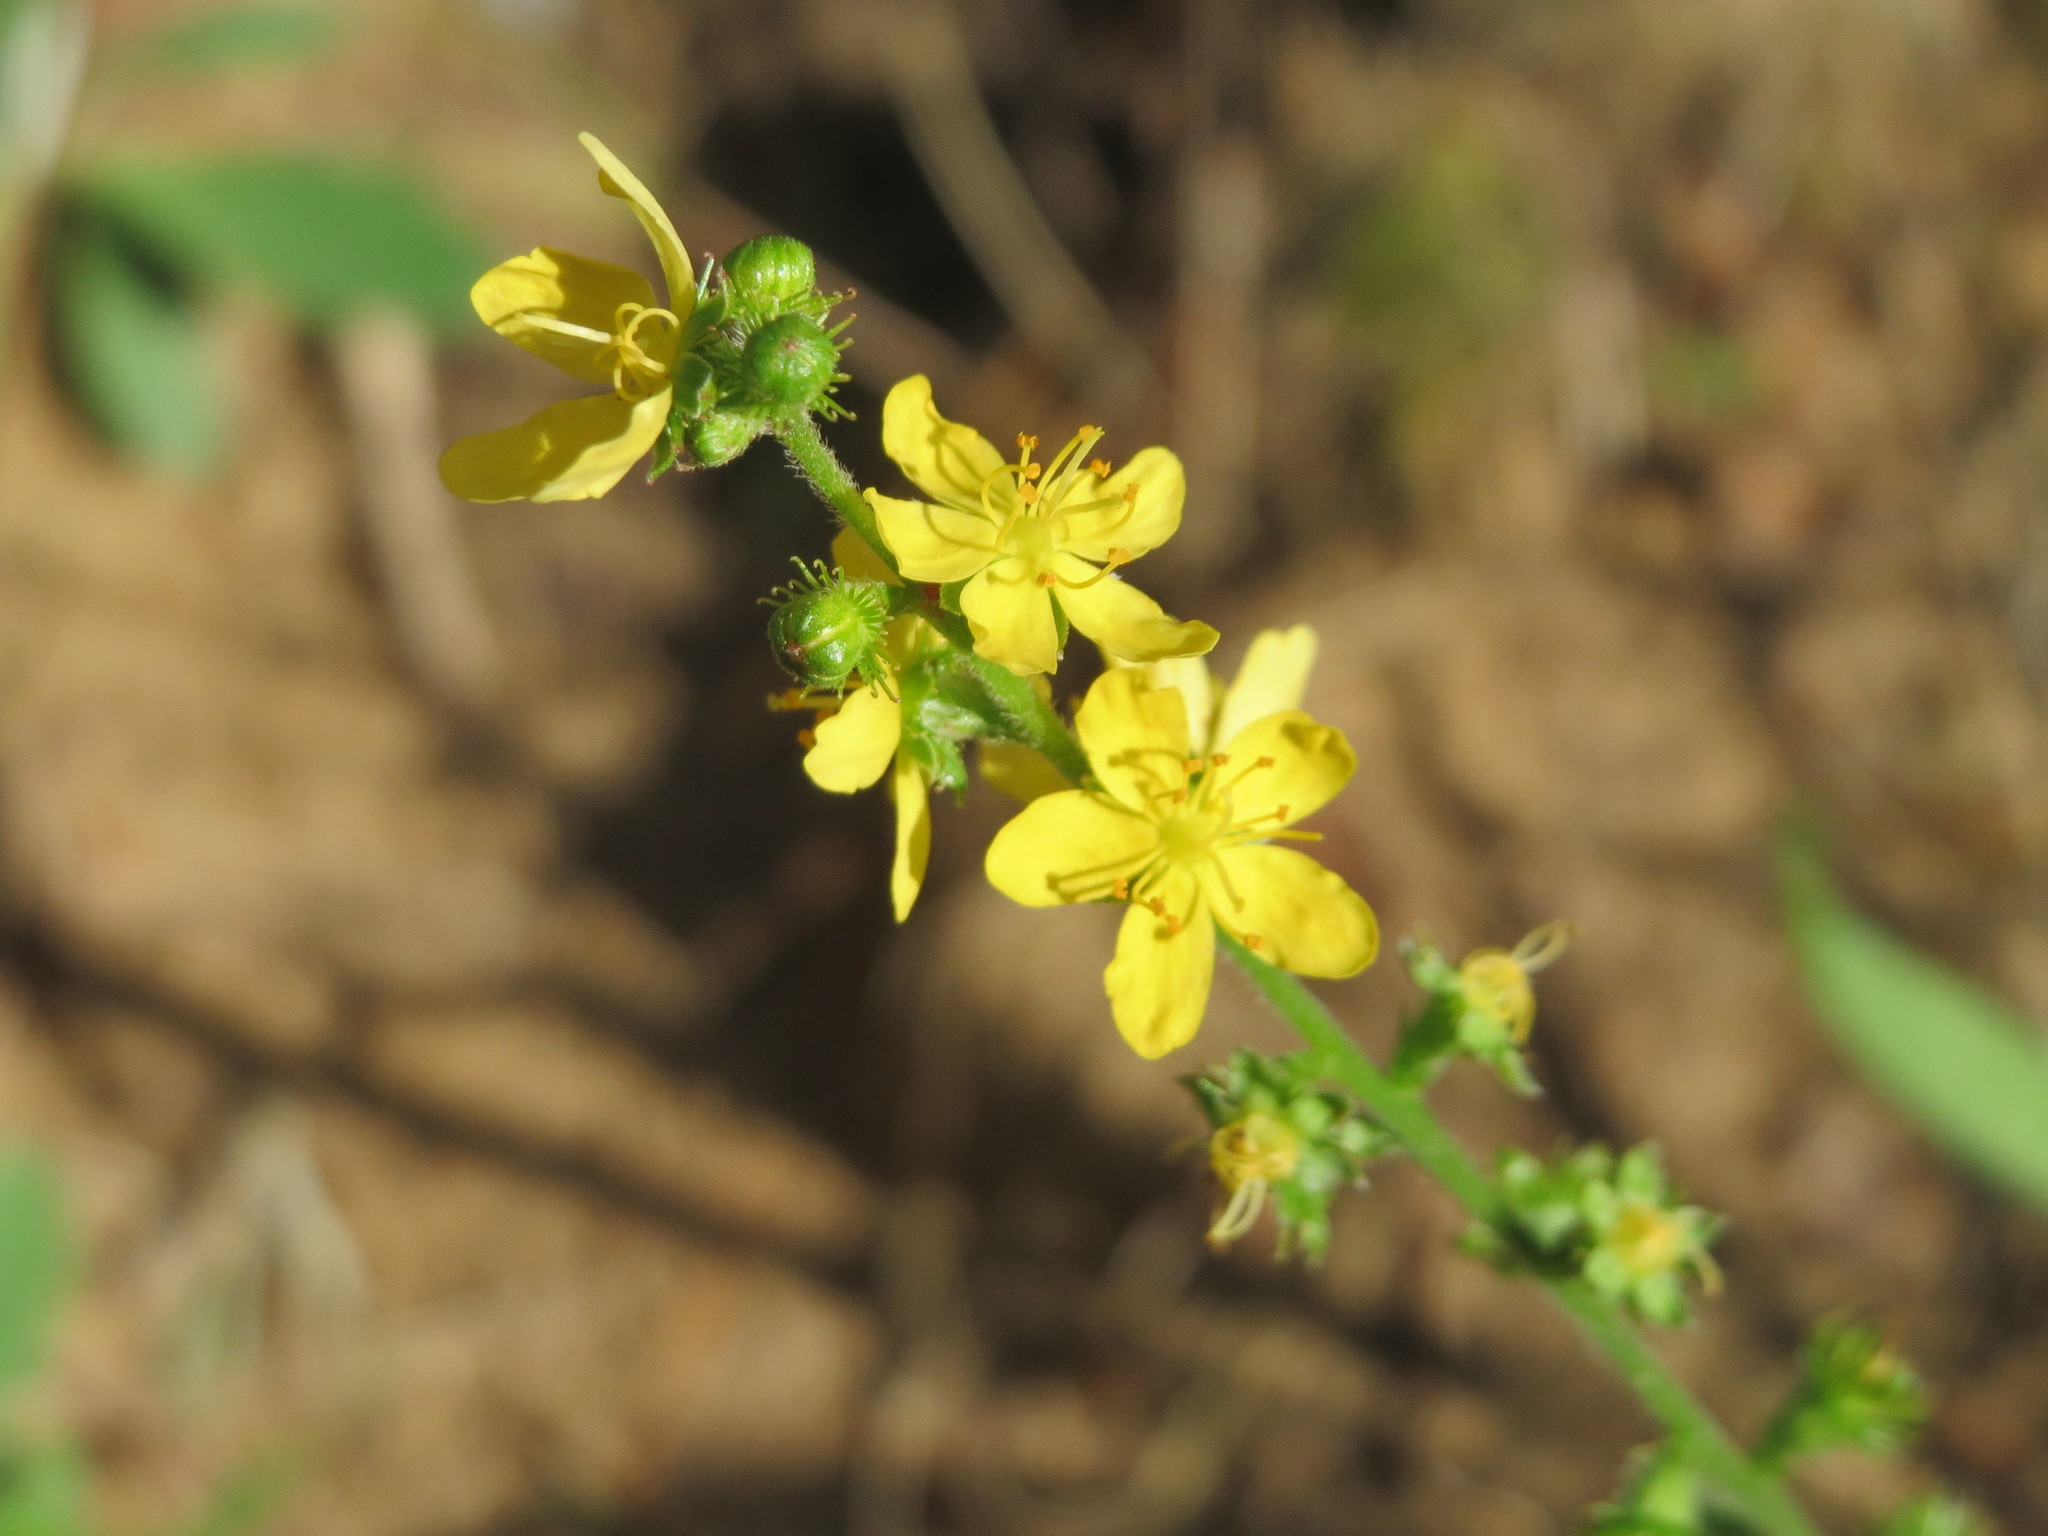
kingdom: Plantae
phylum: Tracheophyta
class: Magnoliopsida
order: Rosales
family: Rosaceae
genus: Agrimonia
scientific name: Agrimonia eupatoria
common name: Agrimony
